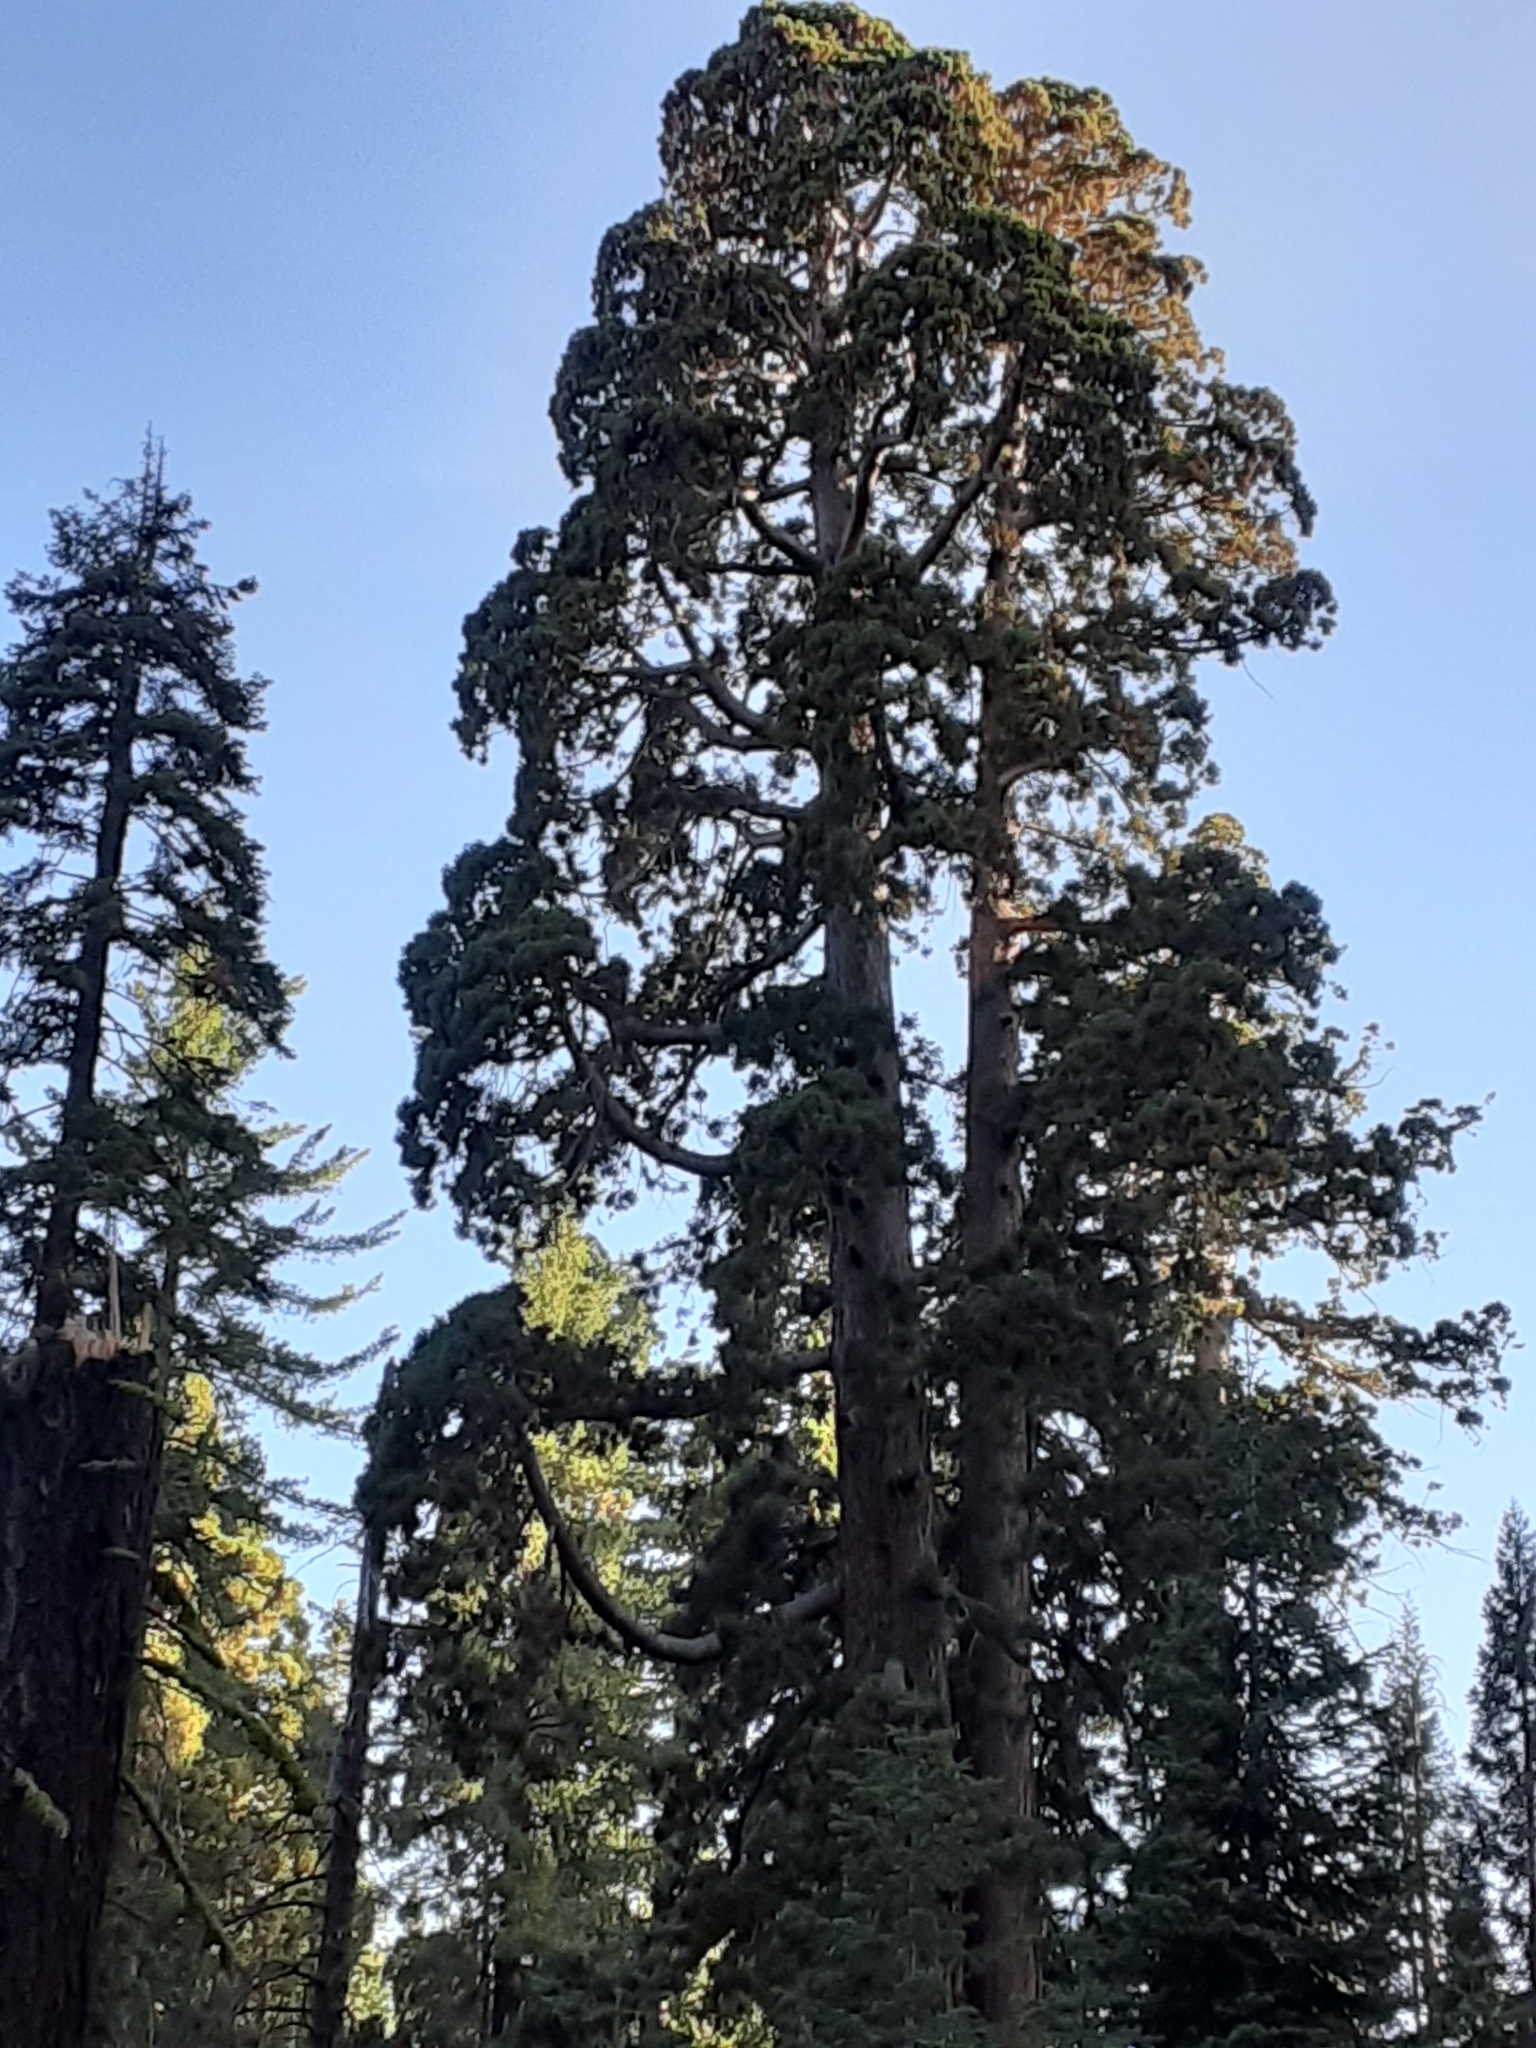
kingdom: Plantae
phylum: Tracheophyta
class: Pinopsida
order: Pinales
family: Cupressaceae
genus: Sequoiadendron
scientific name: Sequoiadendron giganteum
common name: Wellingtonia
